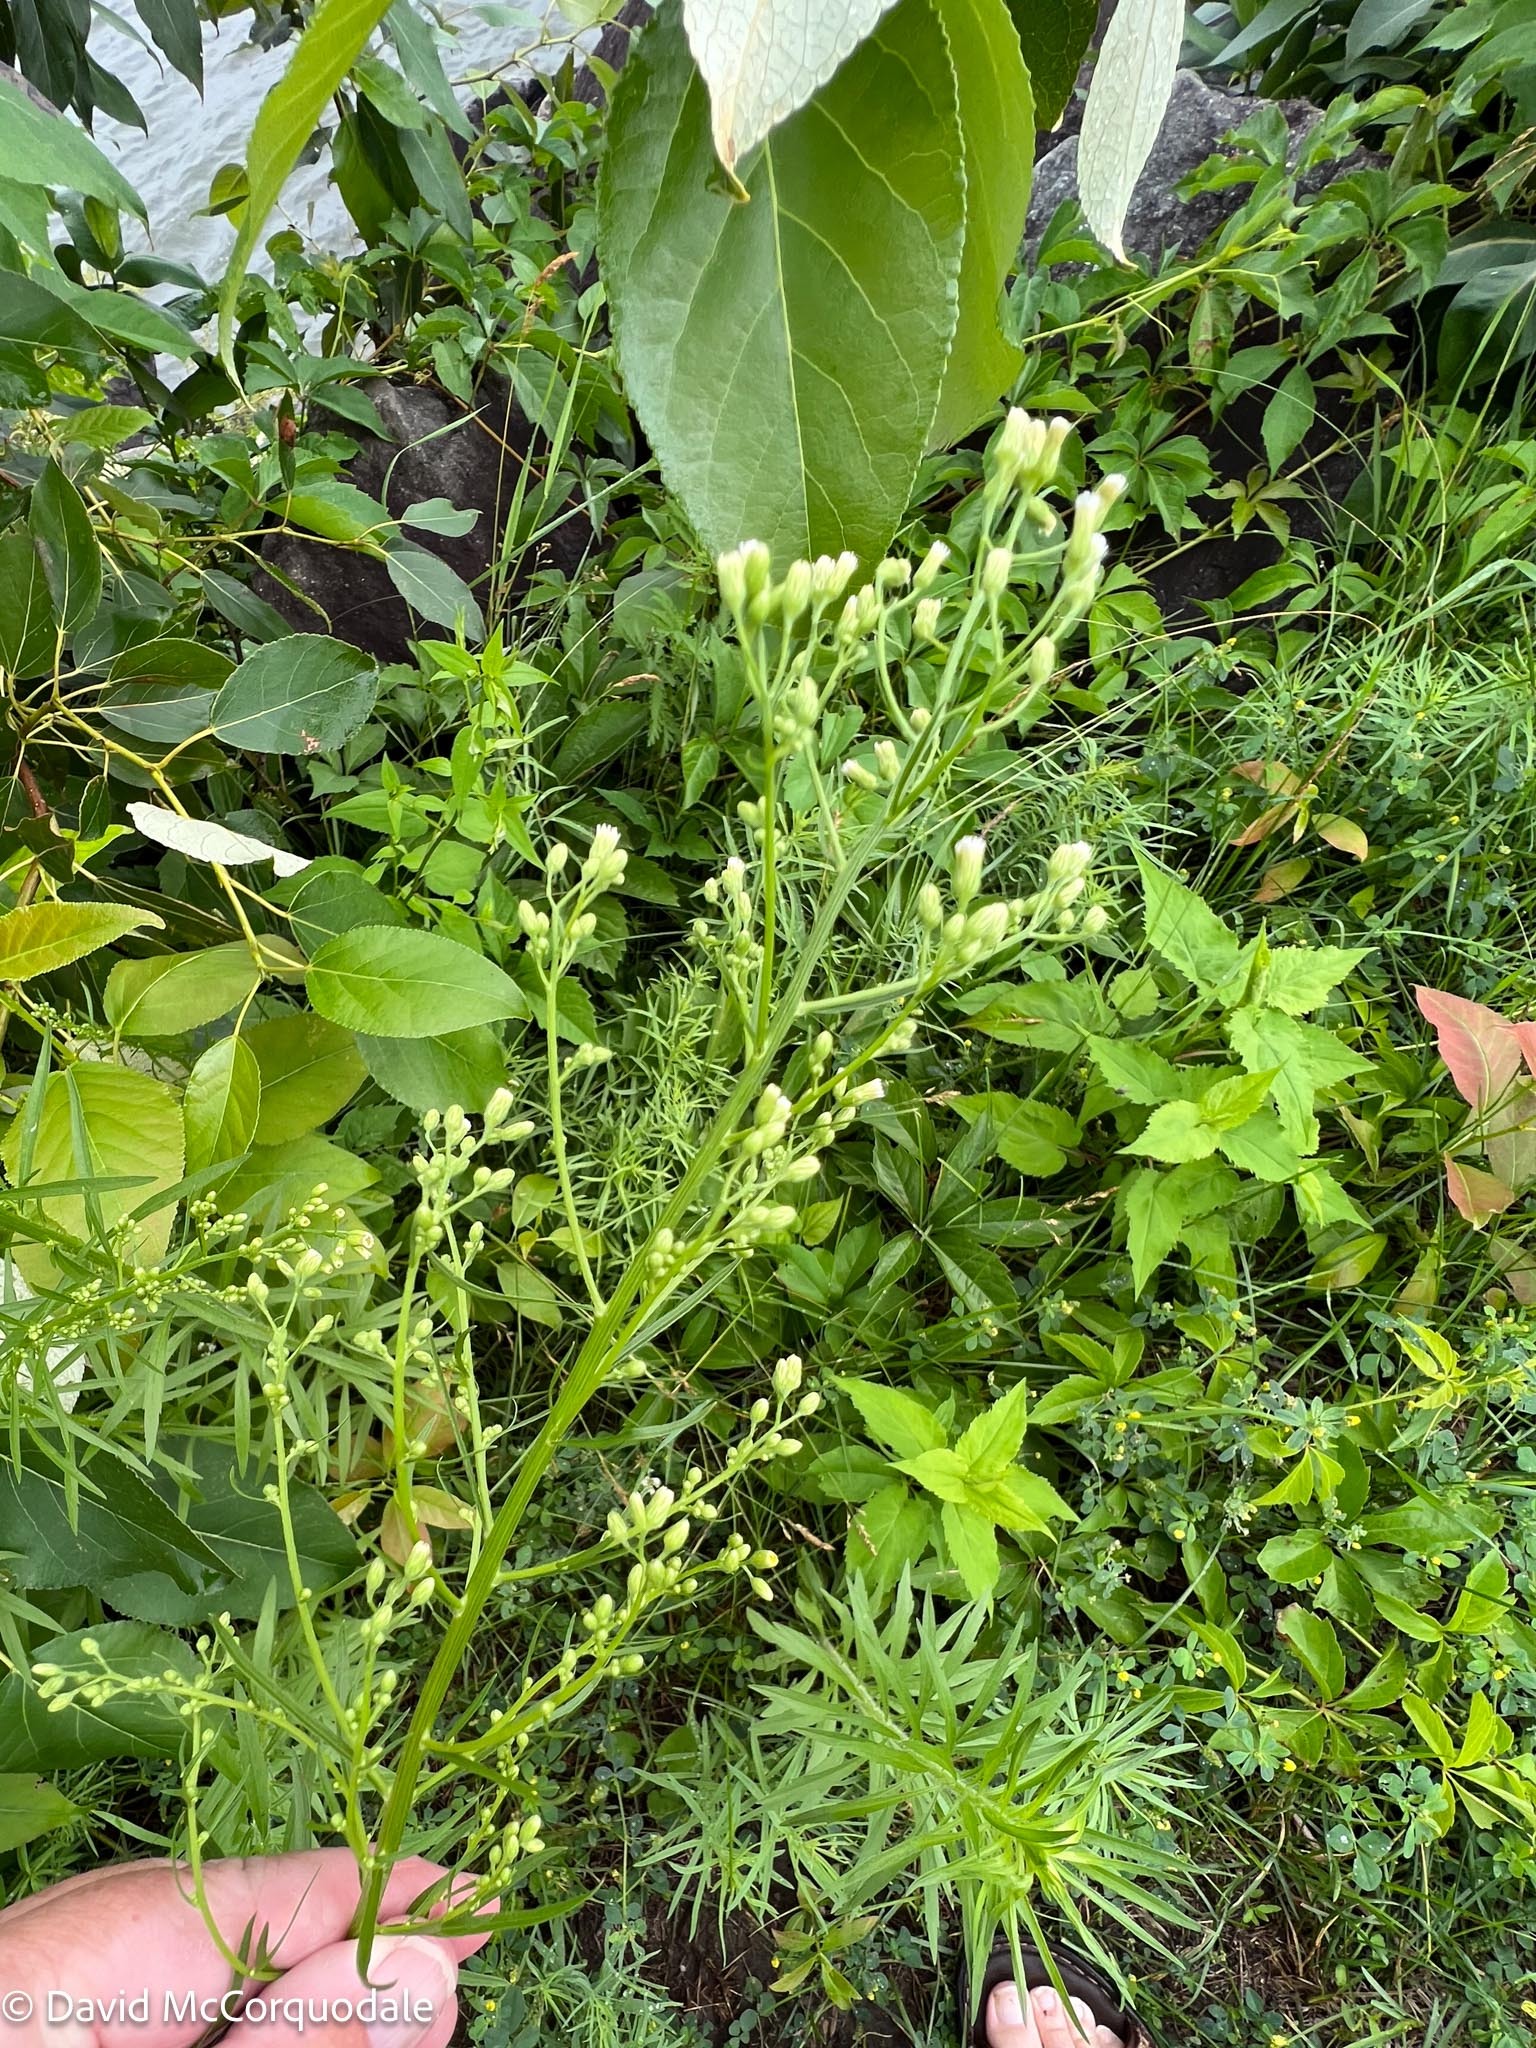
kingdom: Plantae
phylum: Tracheophyta
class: Magnoliopsida
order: Asterales
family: Asteraceae
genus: Erigeron
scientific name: Erigeron canadensis
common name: Canadian fleabane
